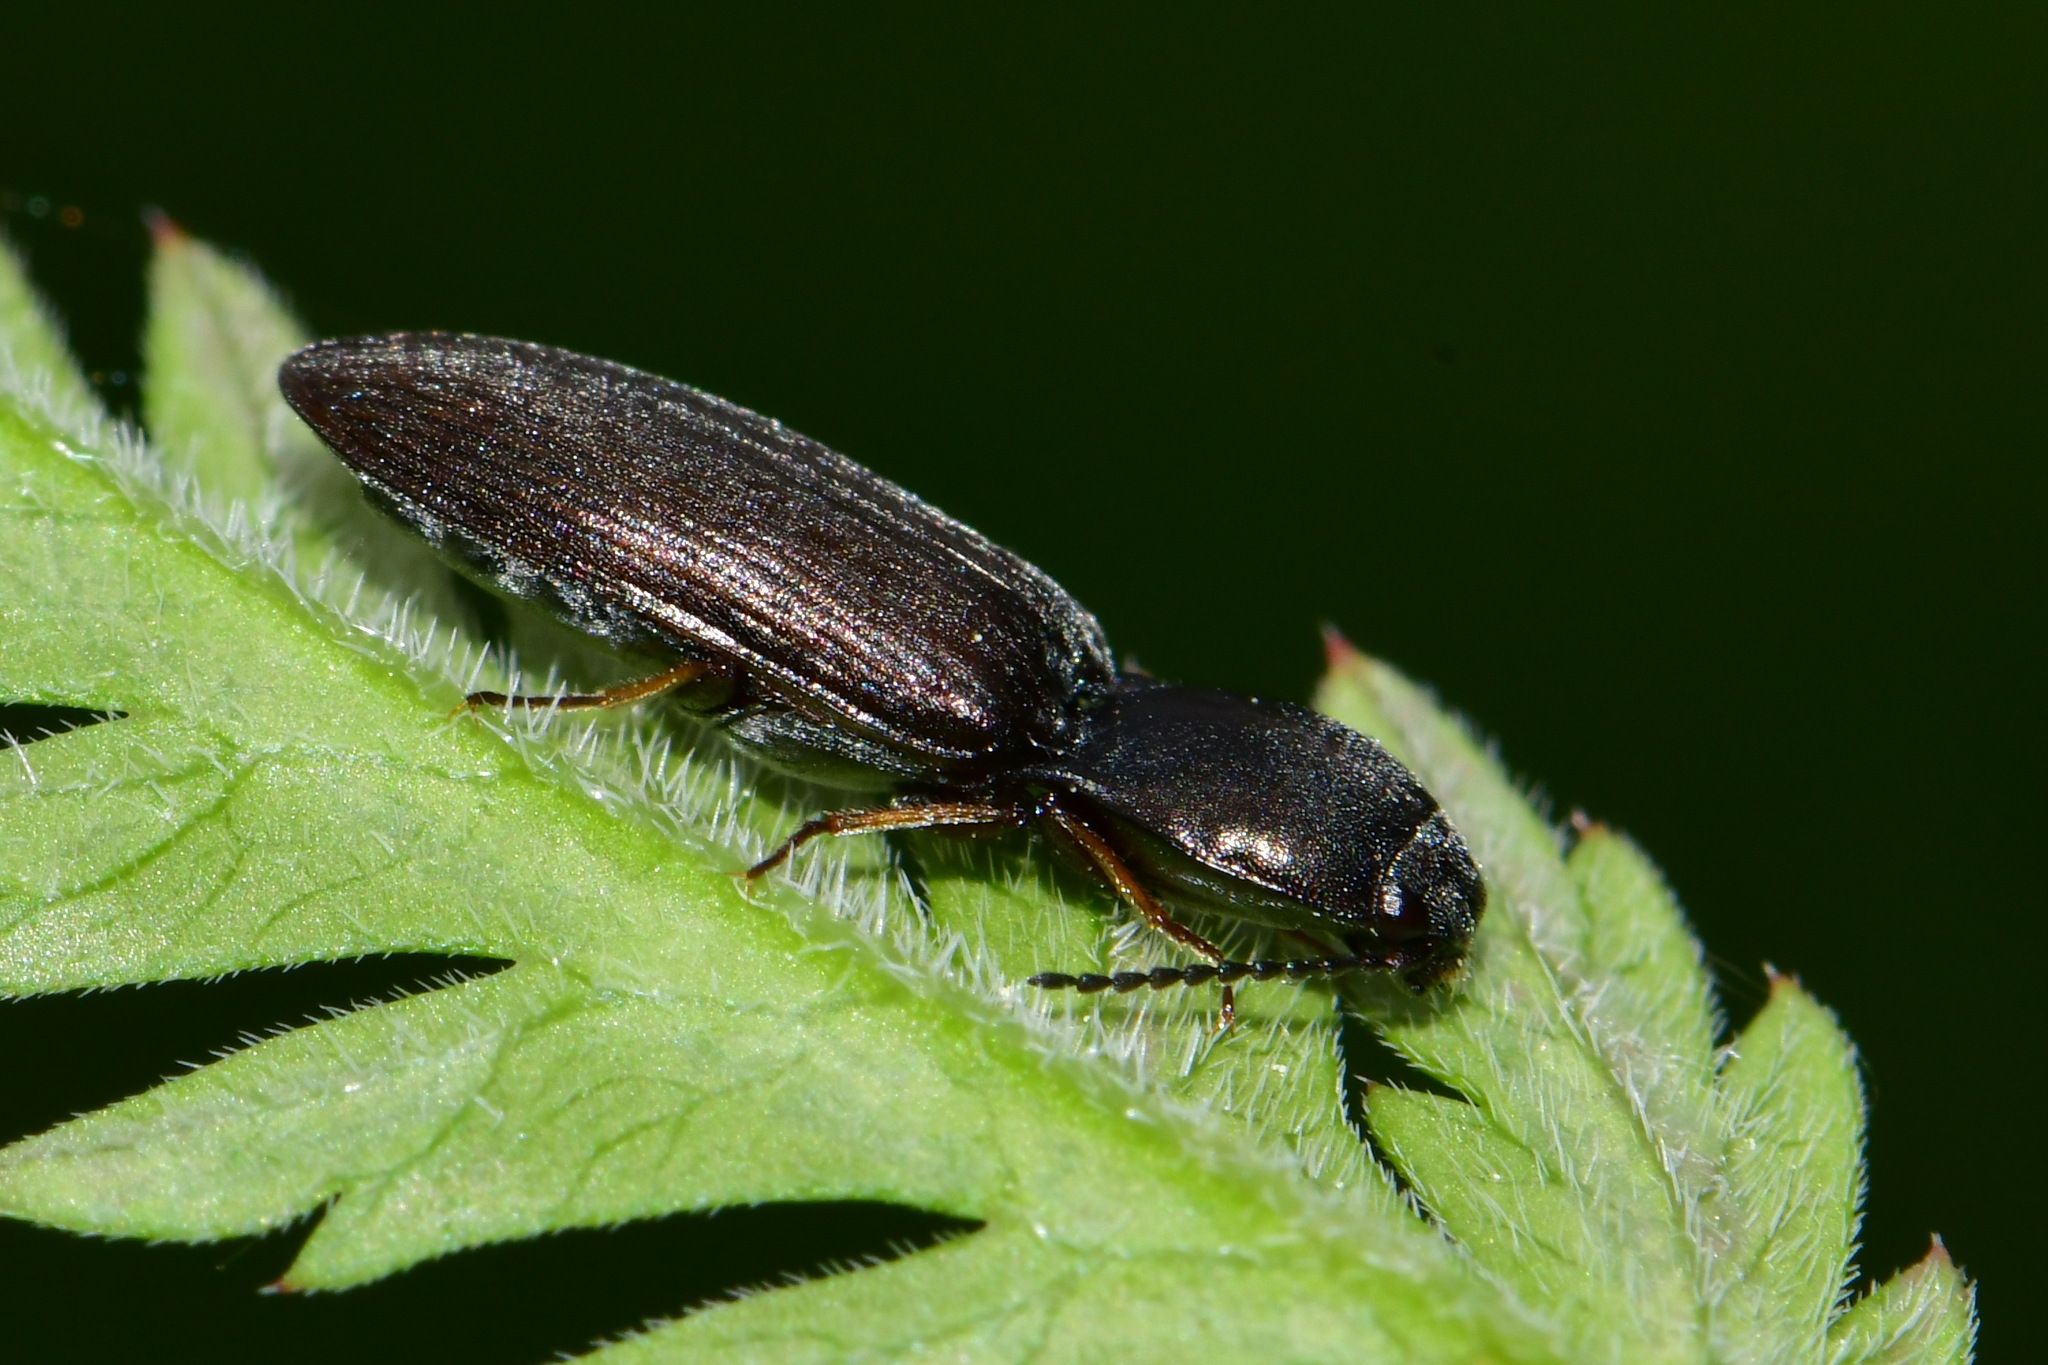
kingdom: Animalia
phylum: Arthropoda
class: Insecta
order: Coleoptera
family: Elateridae
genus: Aplotarsus
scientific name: Aplotarsus incanus
